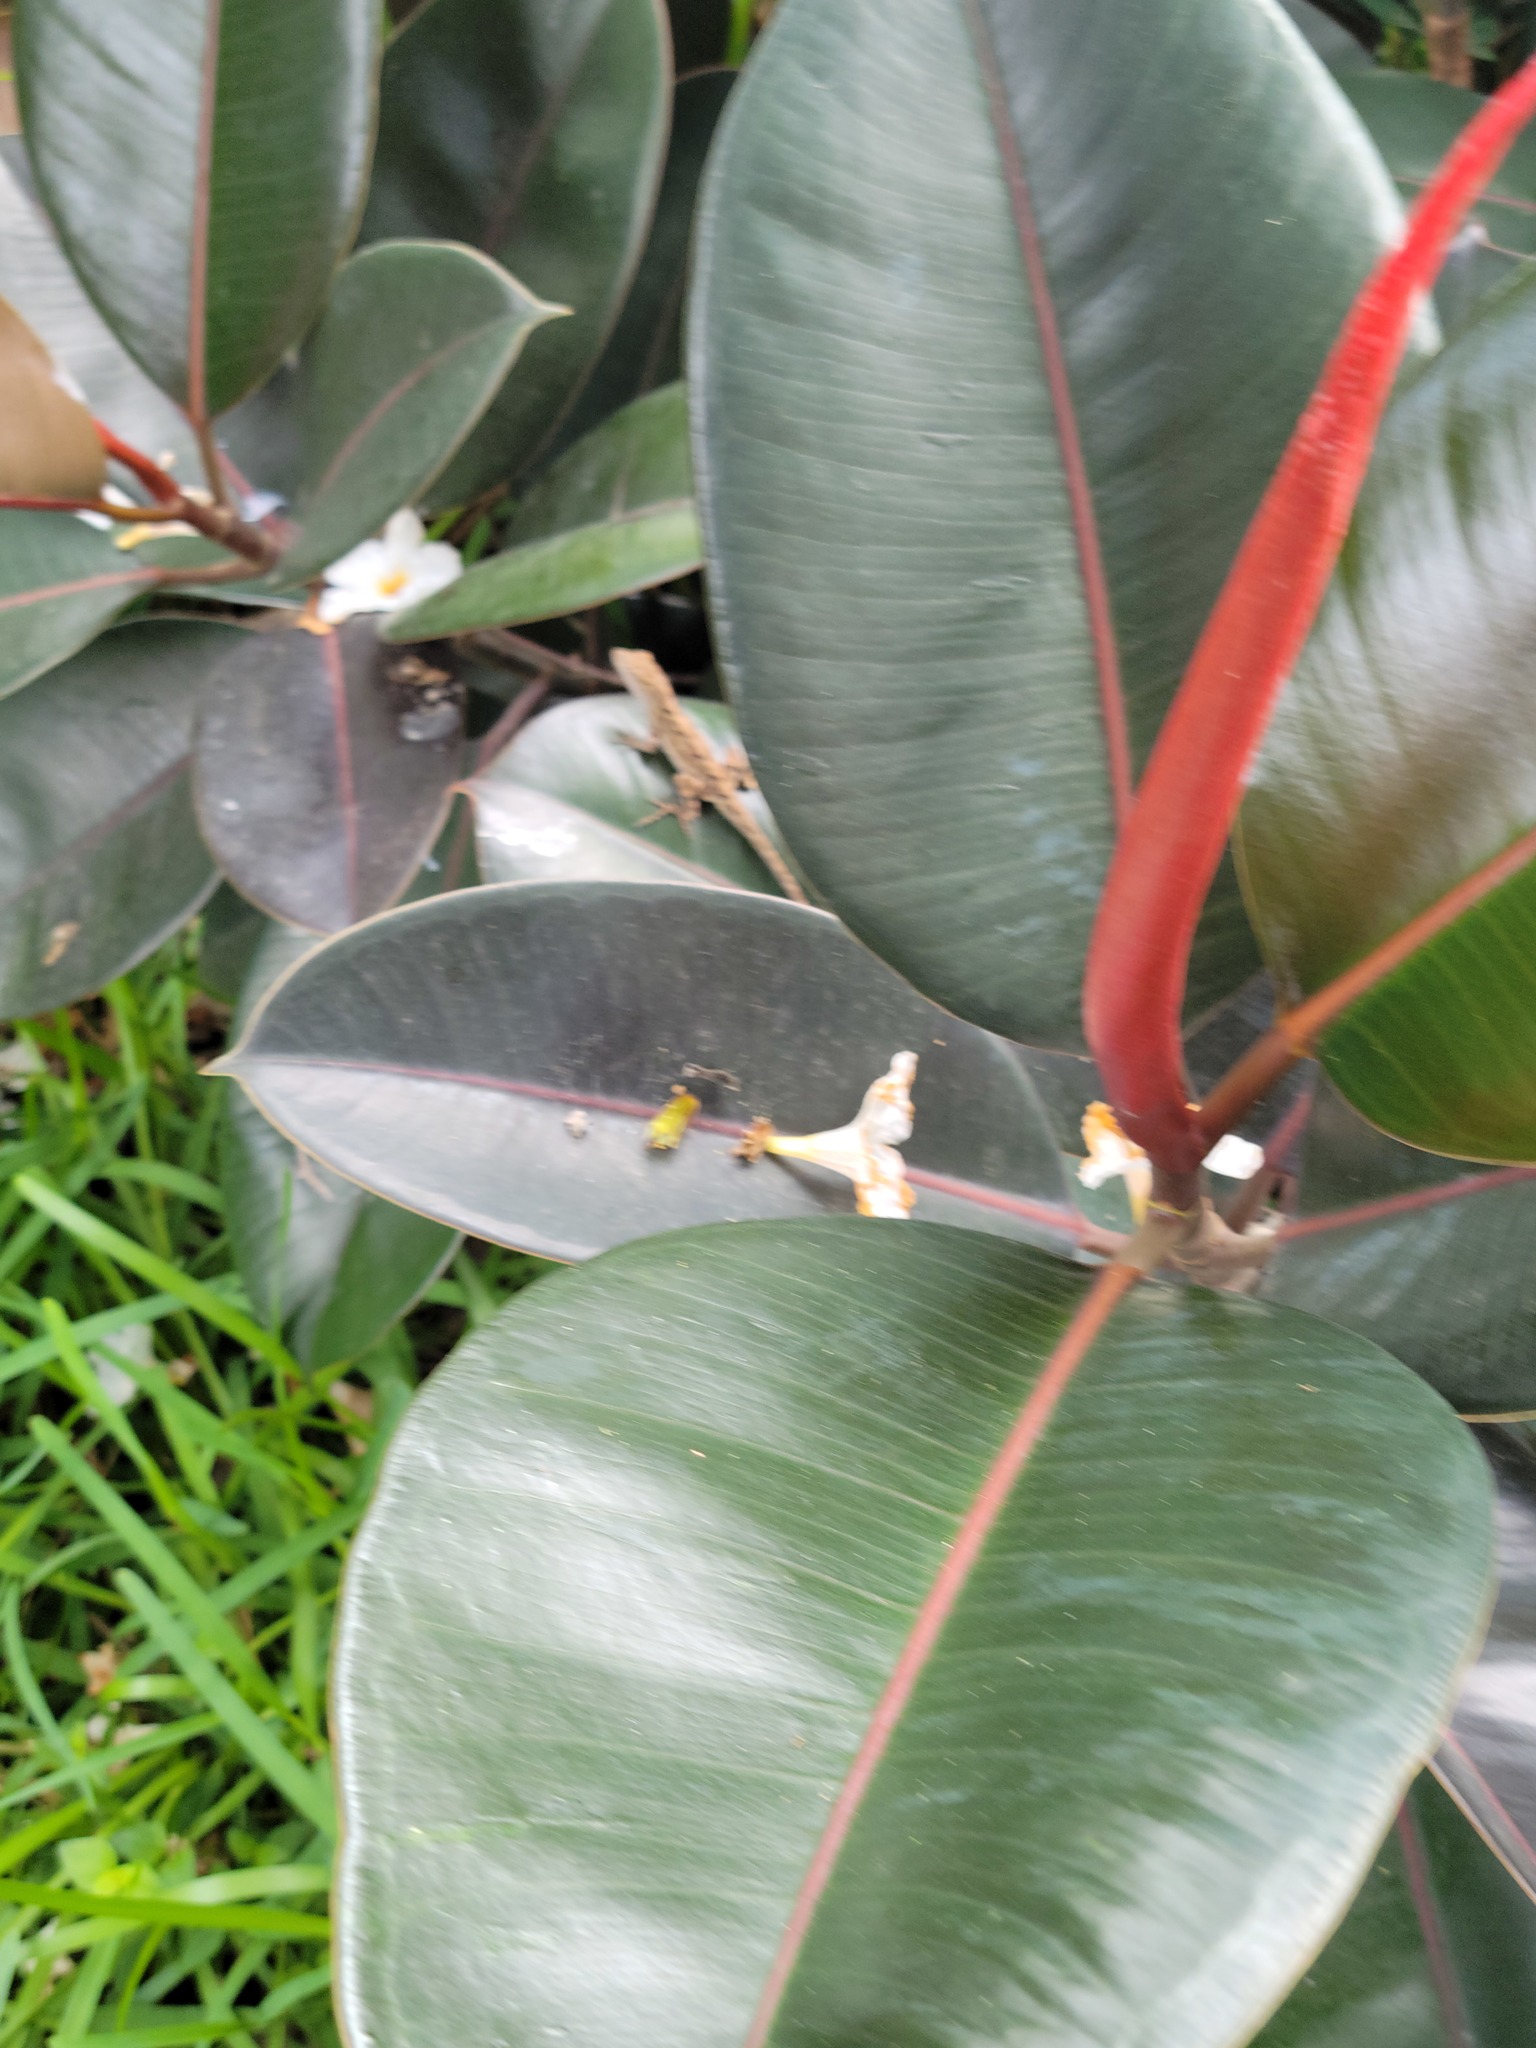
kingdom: Plantae
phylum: Tracheophyta
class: Magnoliopsida
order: Rosales
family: Moraceae
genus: Ficus
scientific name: Ficus elastica
